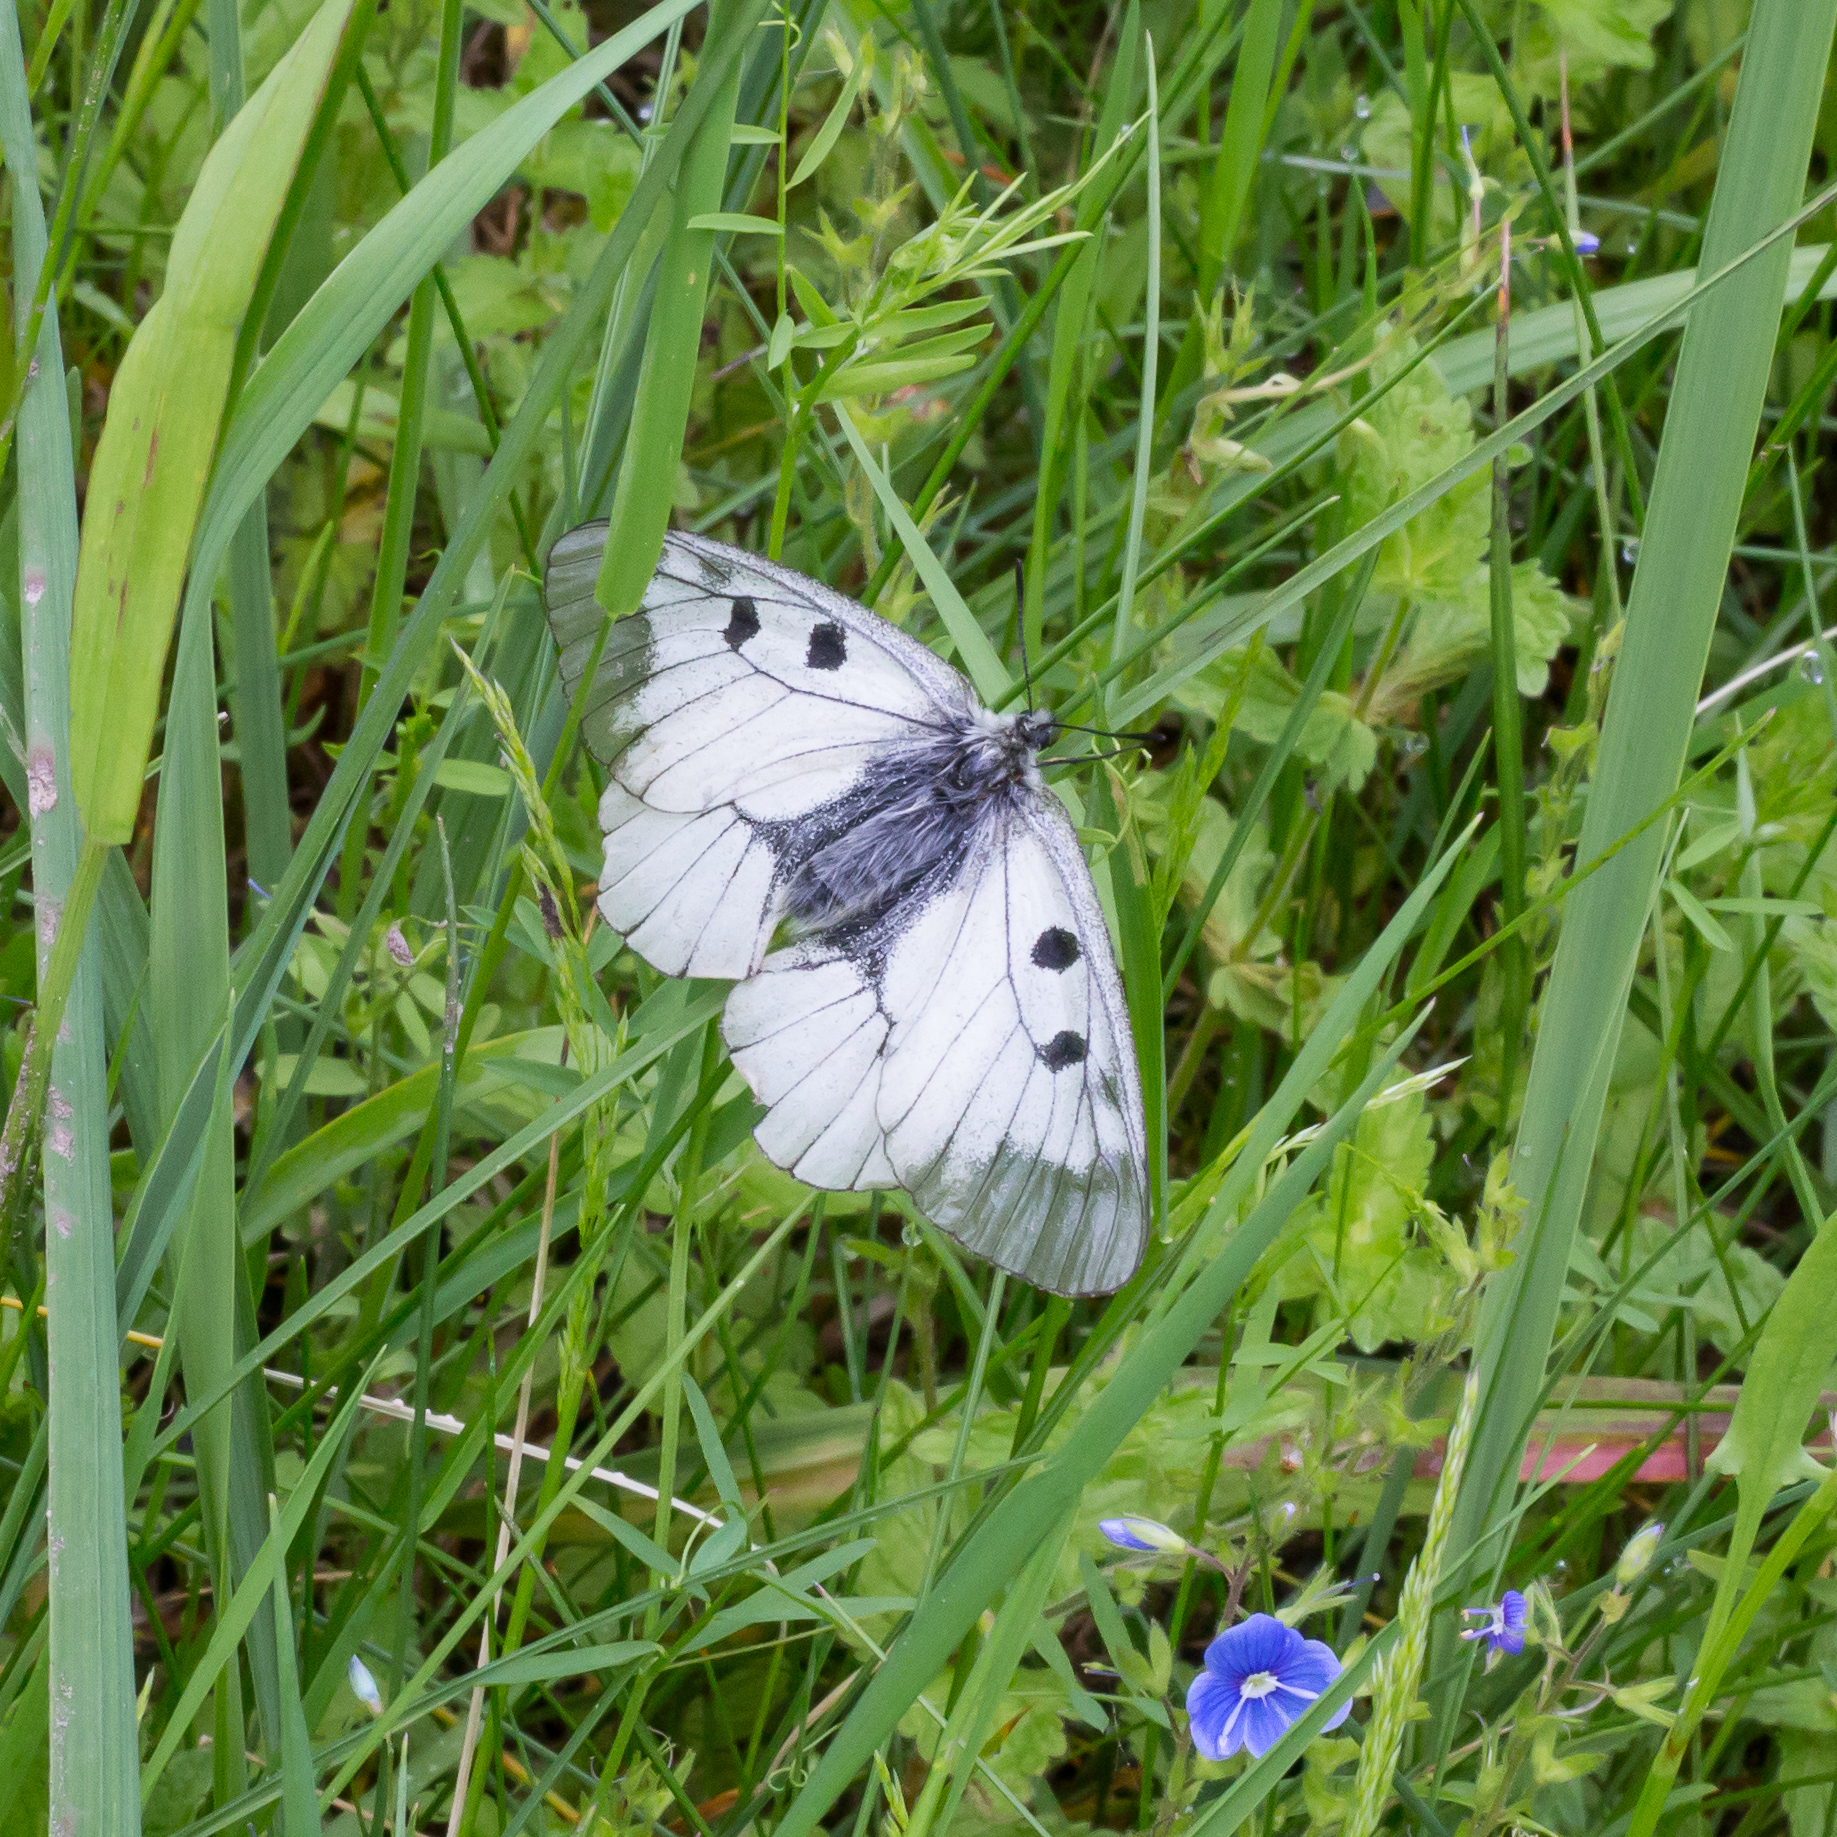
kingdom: Animalia
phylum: Arthropoda
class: Insecta
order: Lepidoptera
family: Papilionidae
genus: Parnassius
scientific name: Parnassius mnemosyne
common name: Clouded apollo
